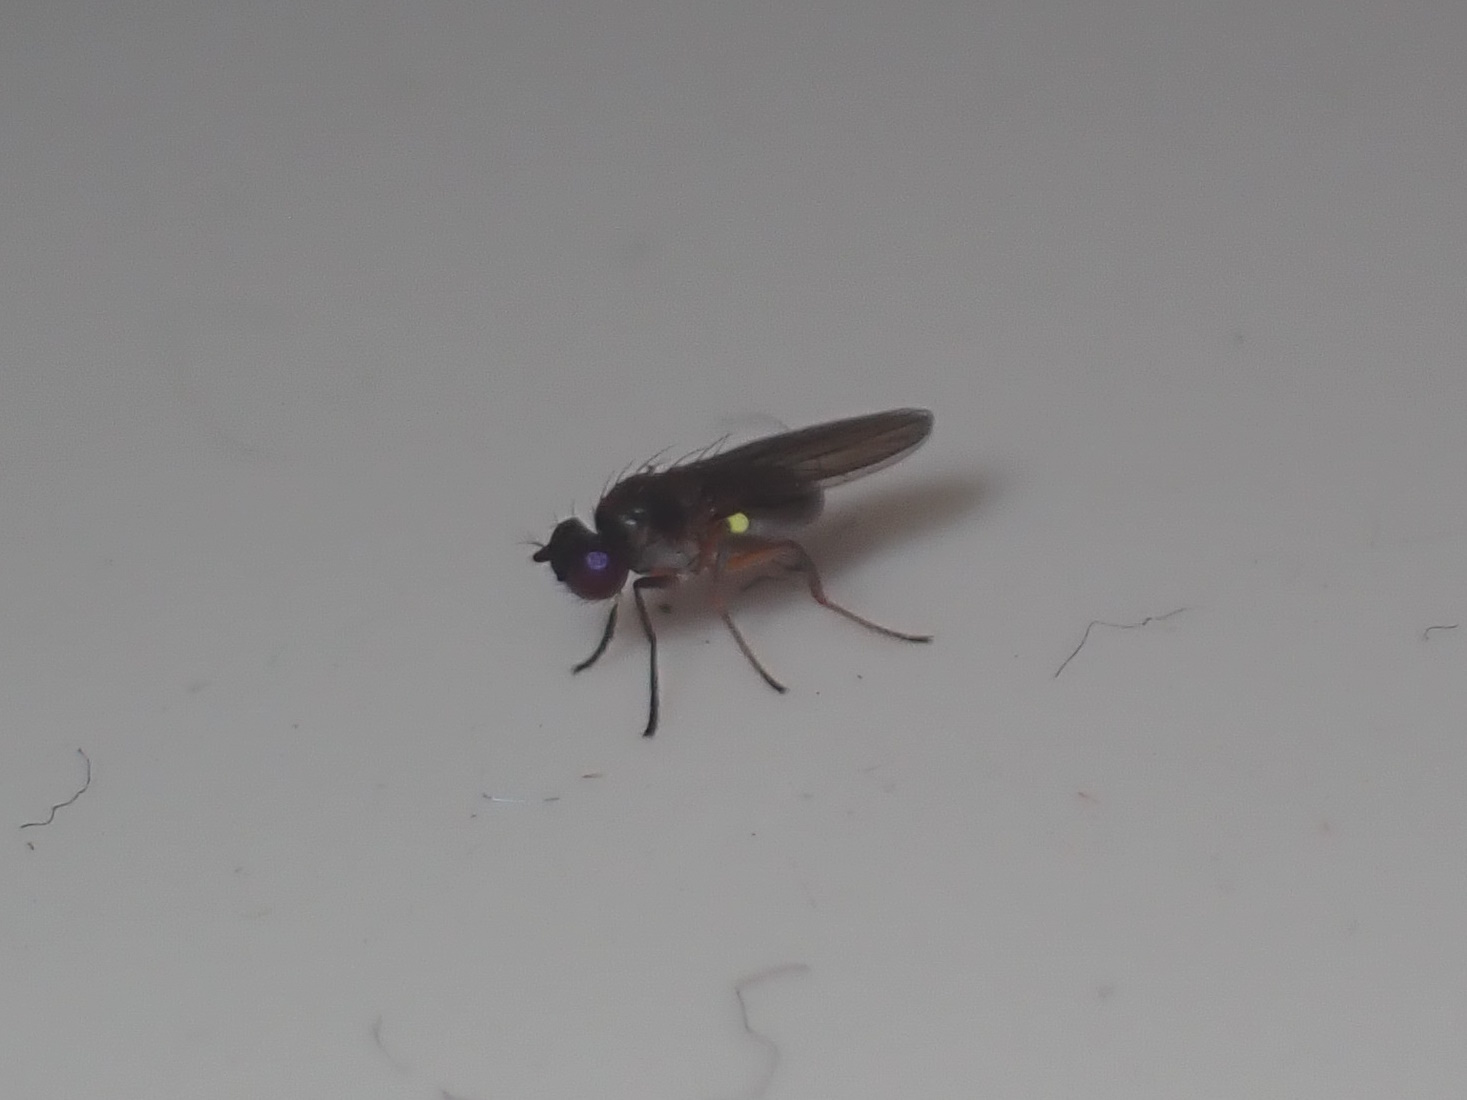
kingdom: Animalia
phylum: Arthropoda
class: Insecta
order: Diptera
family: Ephydridae
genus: Hydrellia
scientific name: Hydrellia tritici
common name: Shore fly
